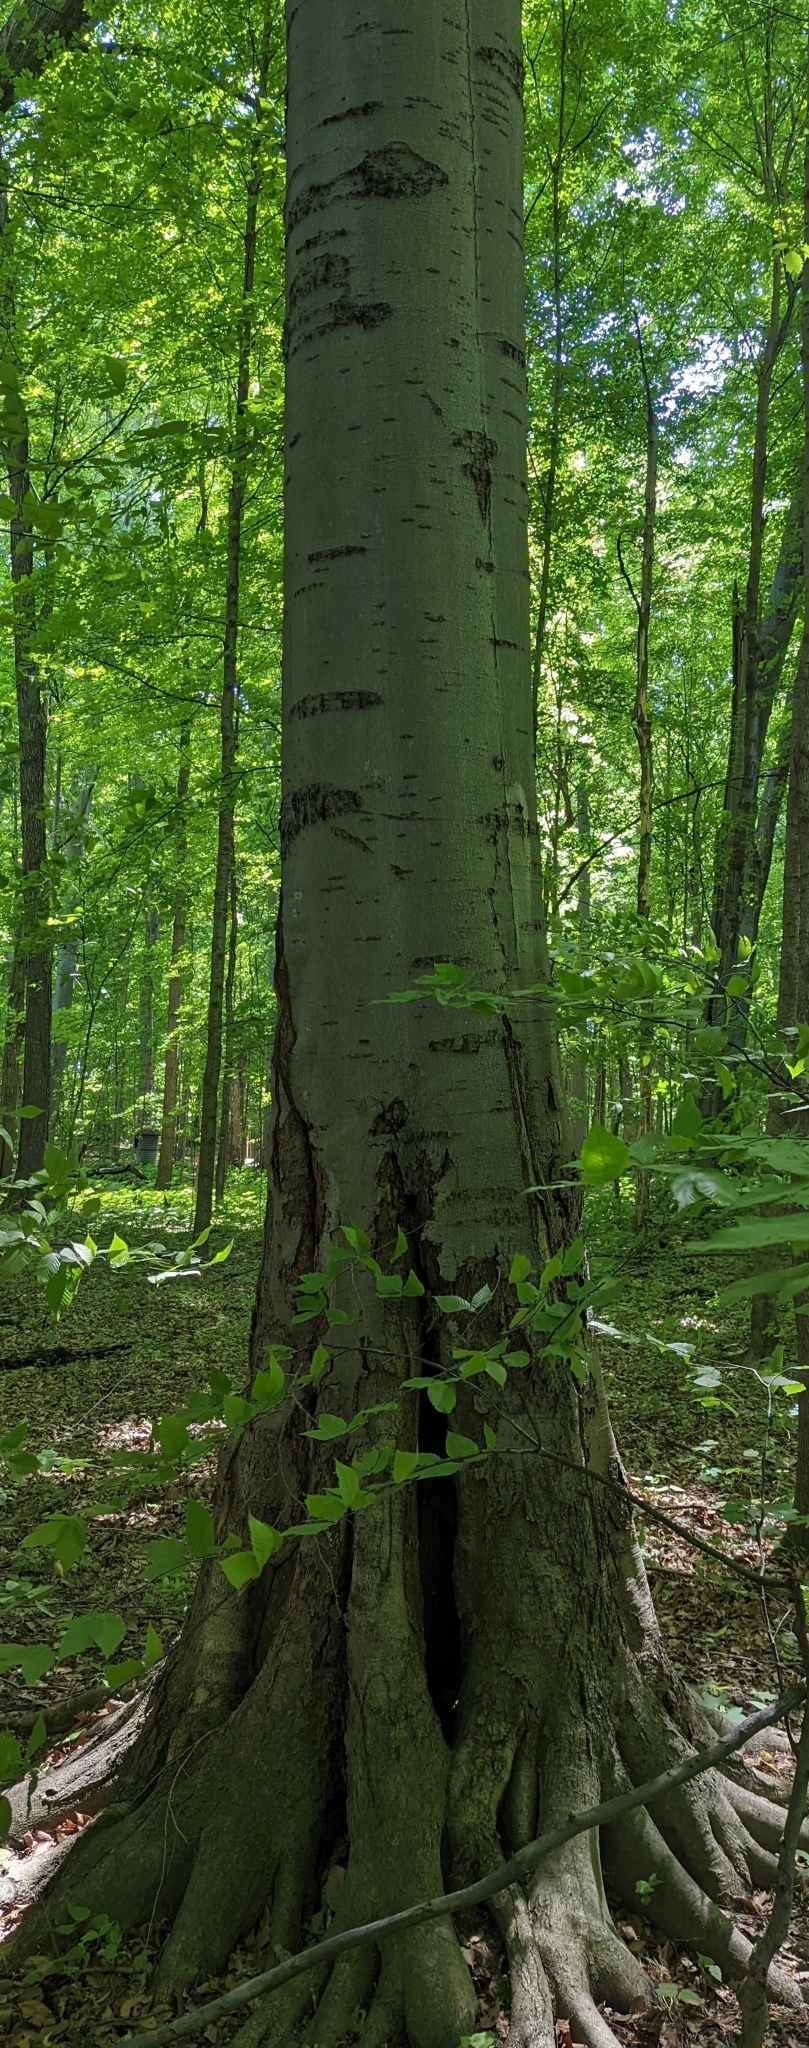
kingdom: Plantae
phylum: Tracheophyta
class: Magnoliopsida
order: Fagales
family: Fagaceae
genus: Fagus
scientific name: Fagus grandifolia
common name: American beech
